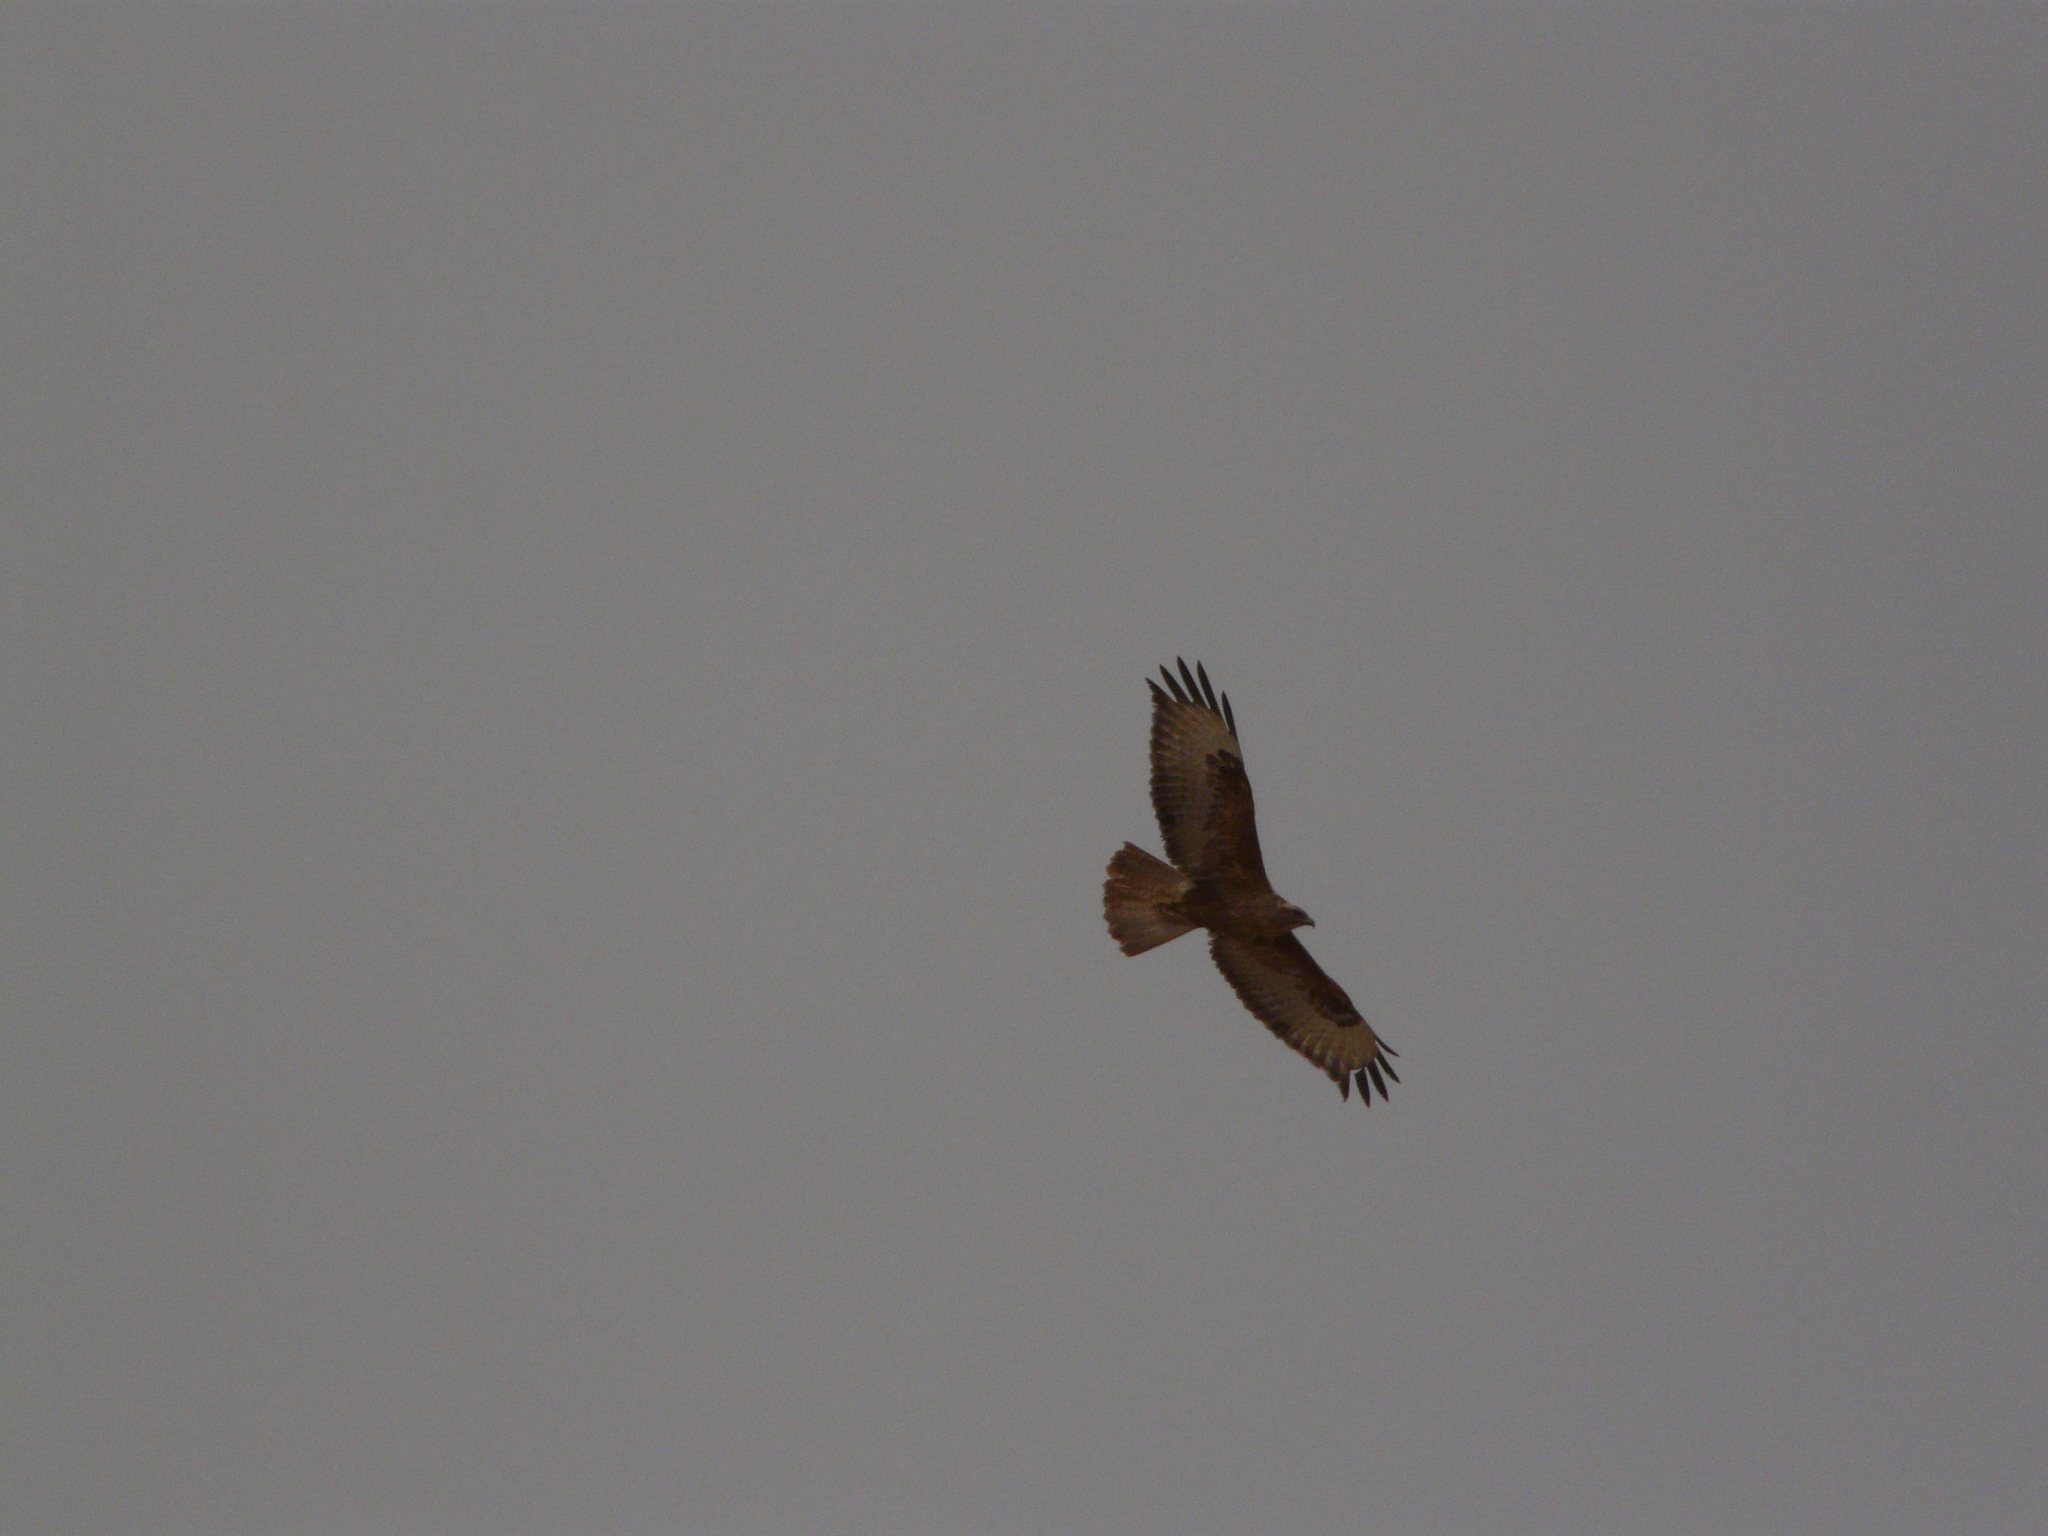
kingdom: Animalia
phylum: Chordata
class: Aves
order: Accipitriformes
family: Accipitridae
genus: Buteo
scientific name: Buteo rufinus
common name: Long-legged buzzard
